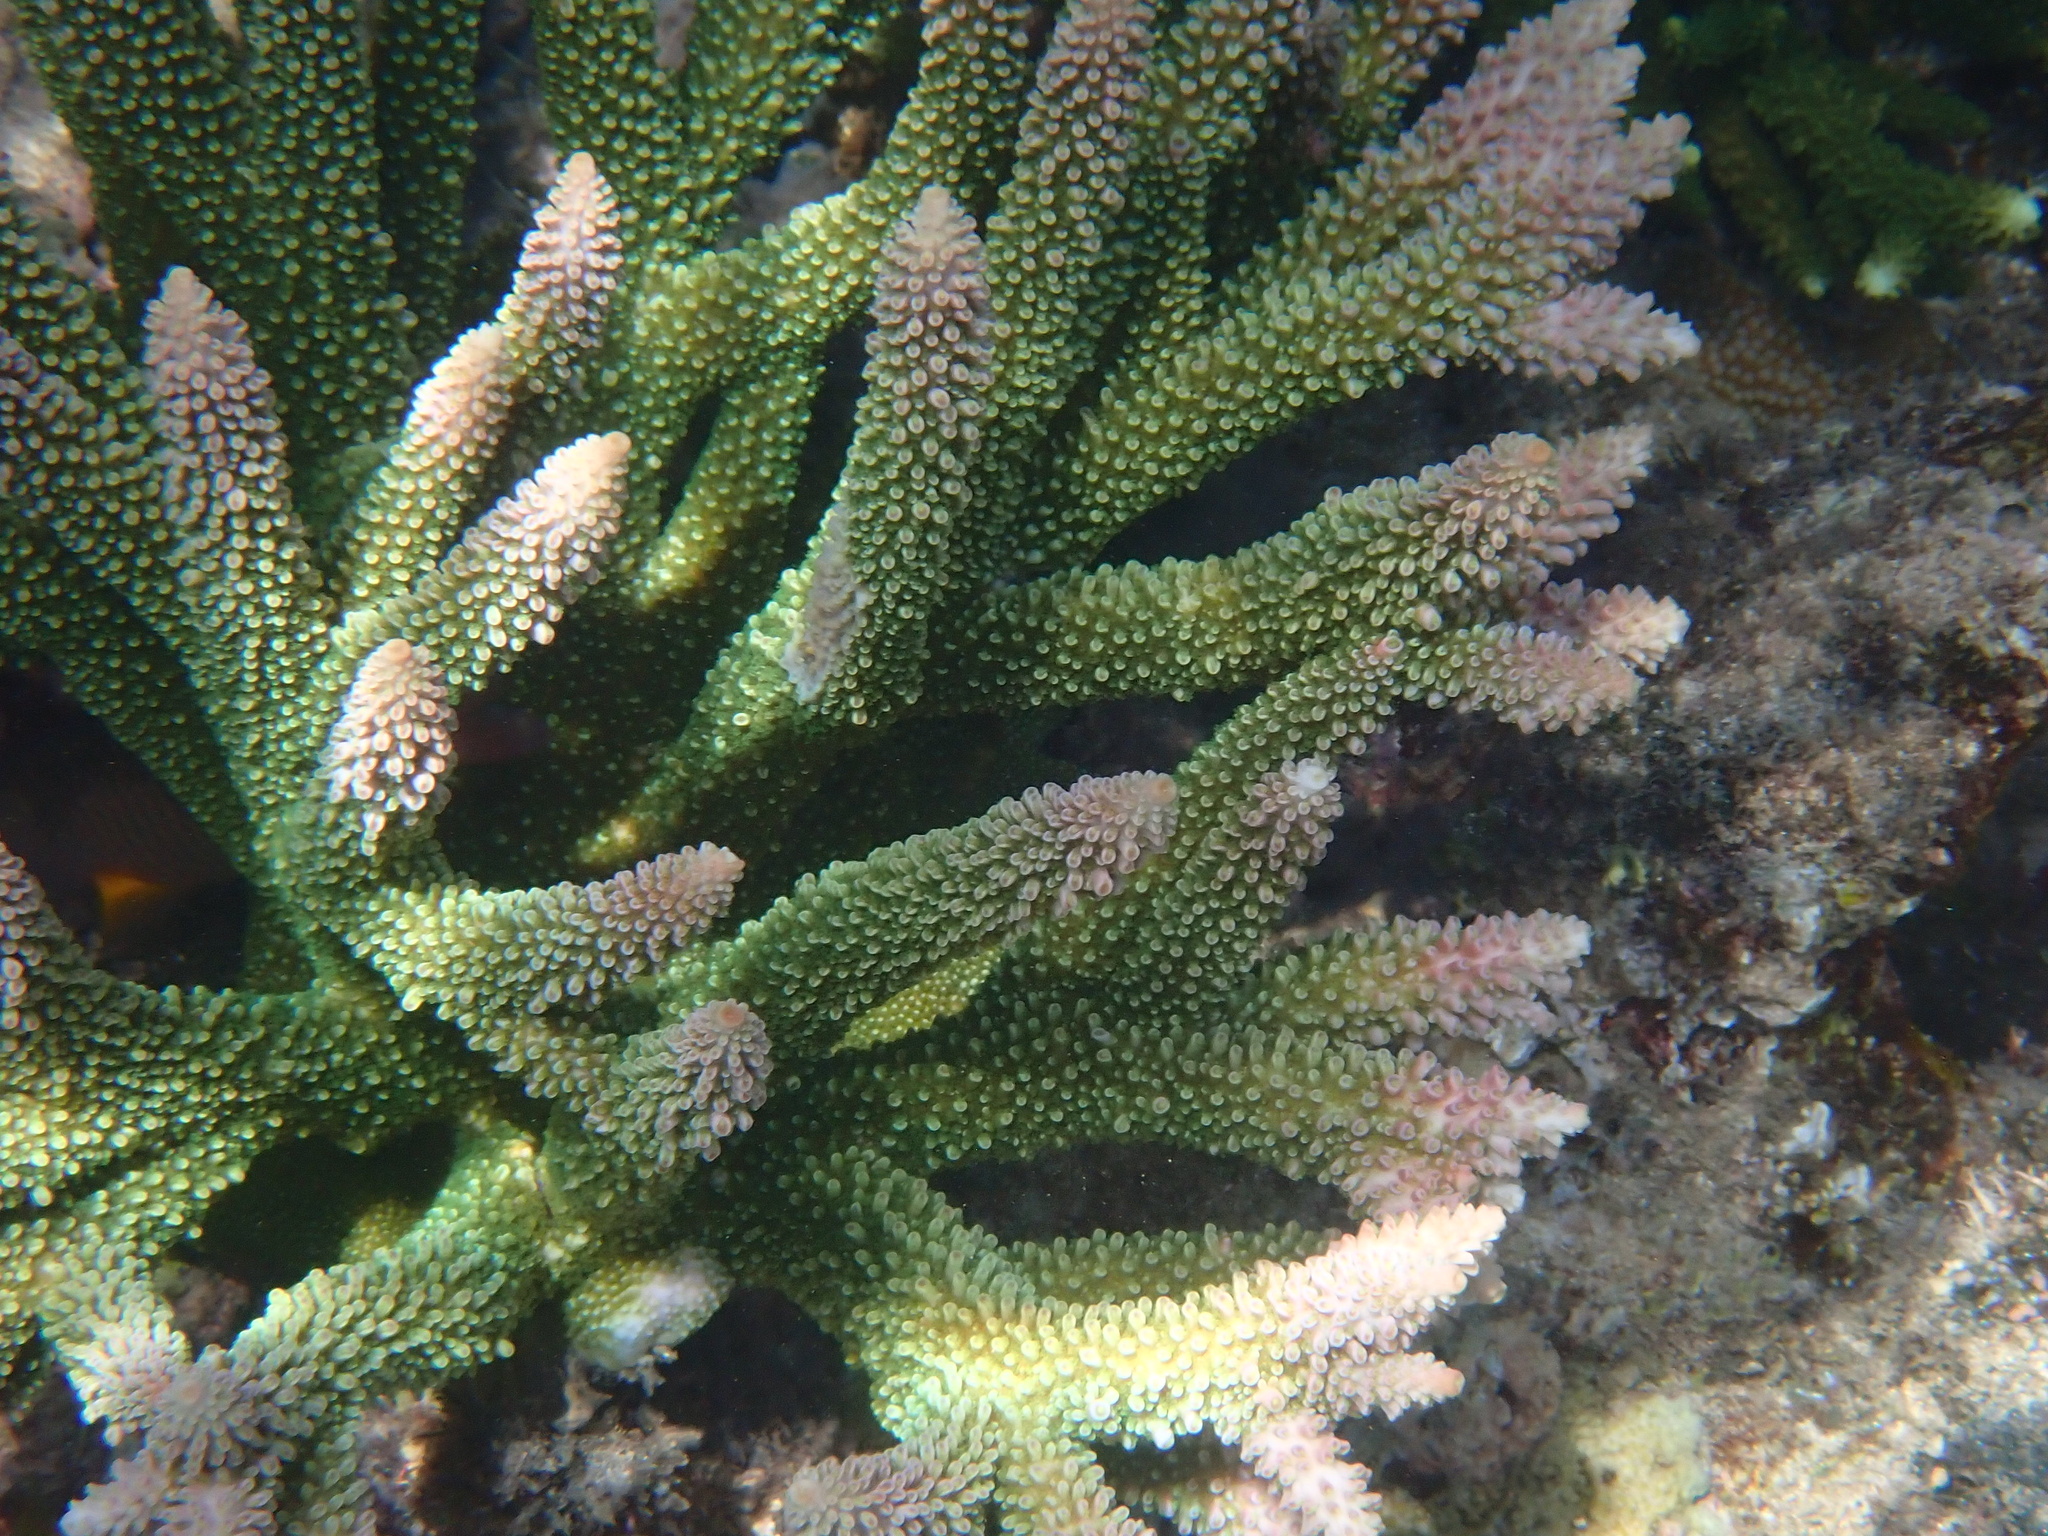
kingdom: Animalia
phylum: Cnidaria
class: Anthozoa
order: Scleractinia
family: Acroporidae
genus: Acropora
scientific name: Acropora abrotanoides
